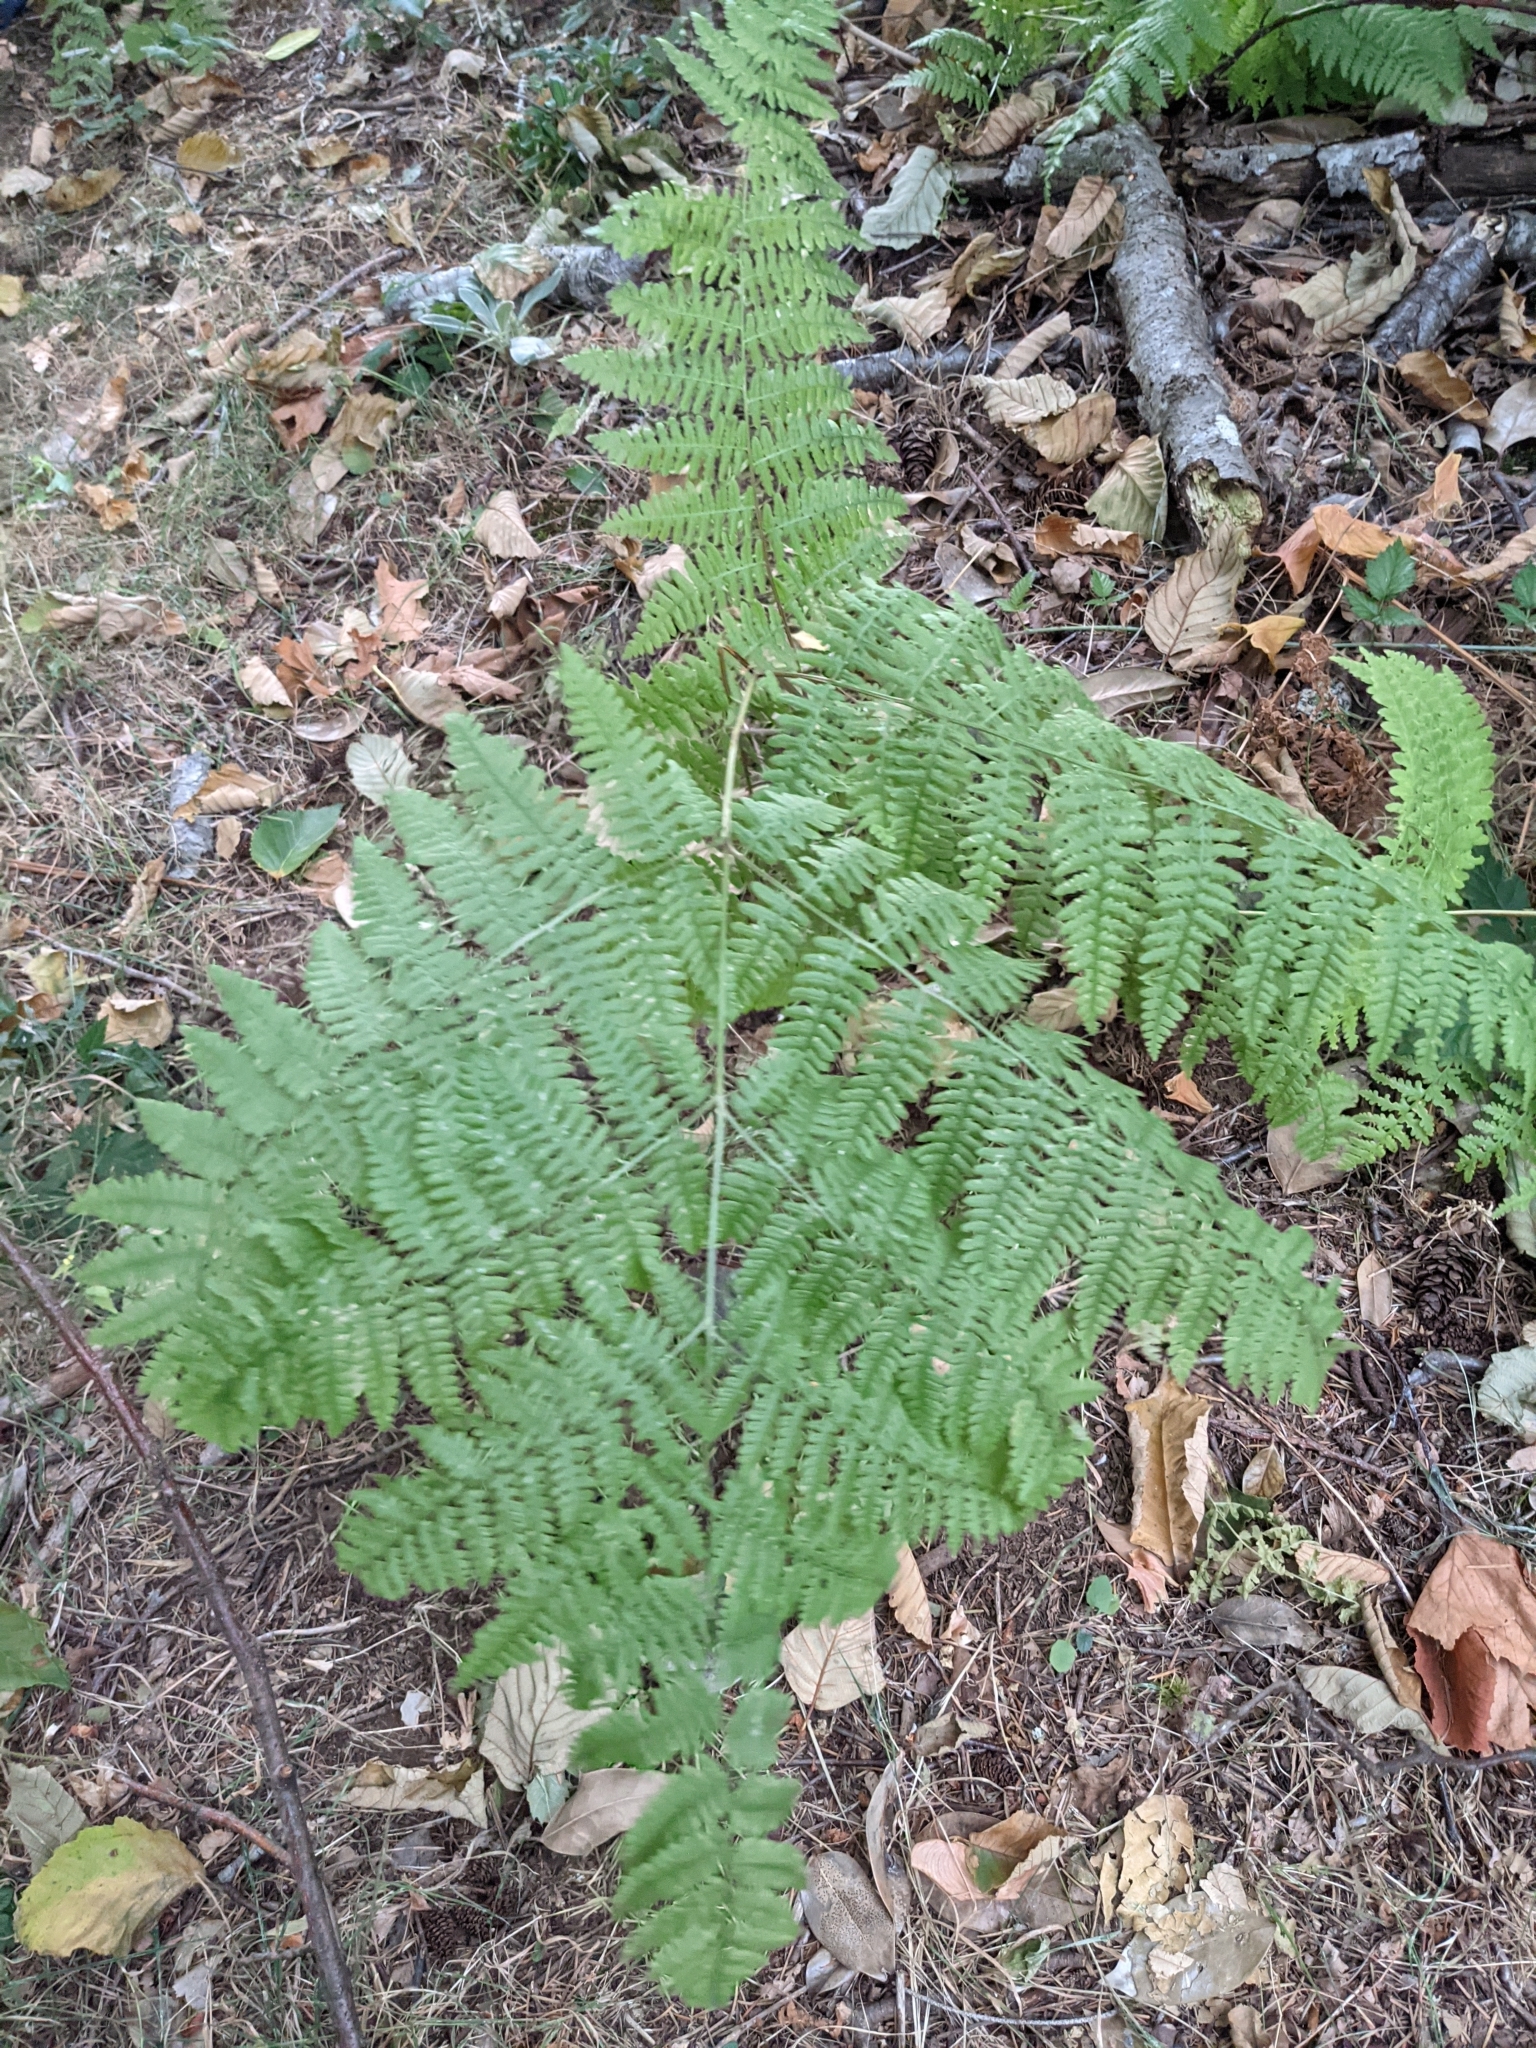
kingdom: Plantae
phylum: Tracheophyta
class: Polypodiopsida
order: Polypodiales
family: Dennstaedtiaceae
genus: Pteridium
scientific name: Pteridium aquilinum
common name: Bracken
